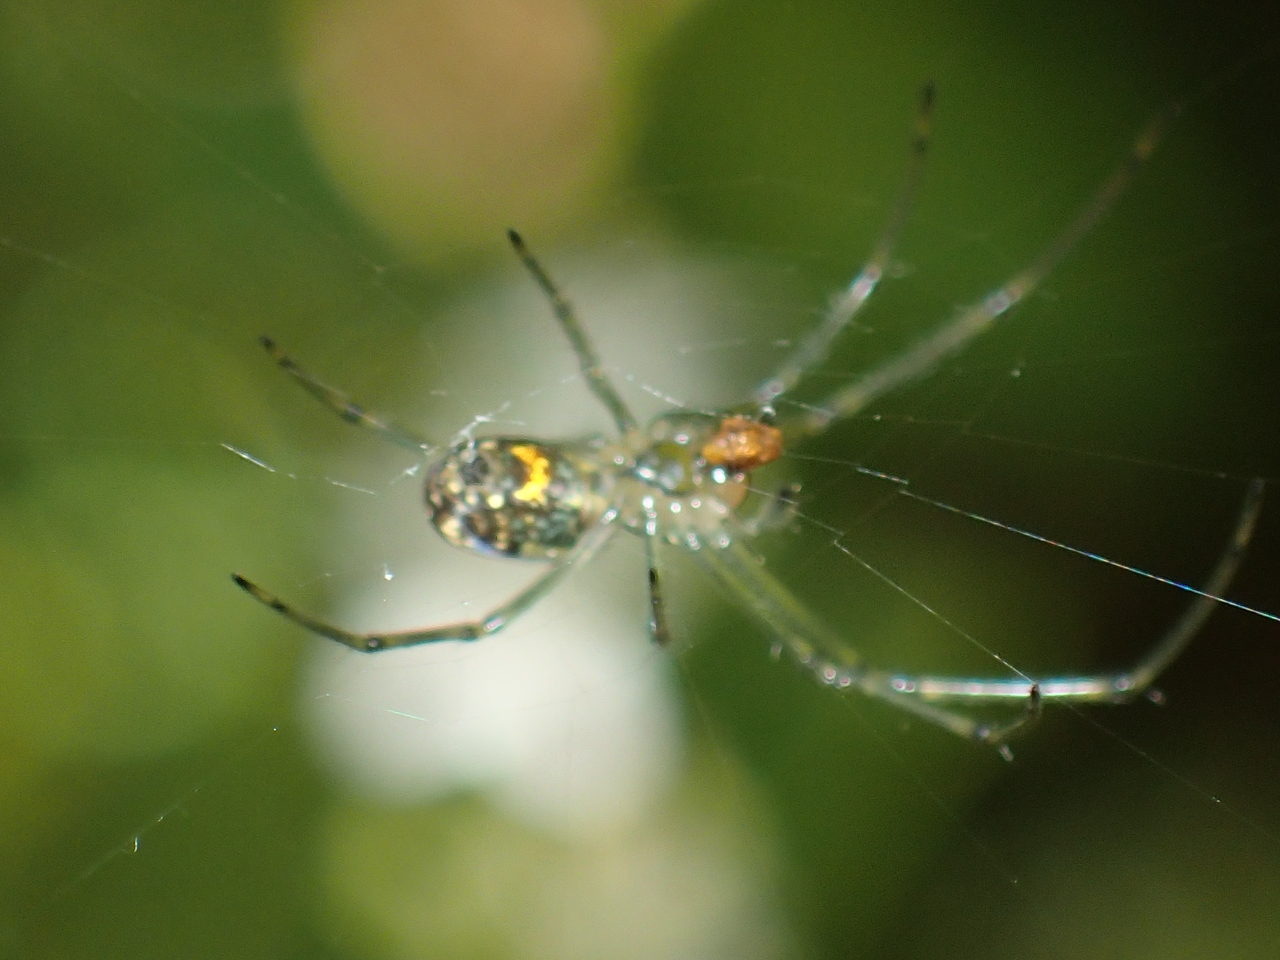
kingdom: Animalia
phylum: Arthropoda
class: Arachnida
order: Araneae
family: Tetragnathidae
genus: Leucauge
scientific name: Leucauge venusta
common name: Longjawed orb weavers
